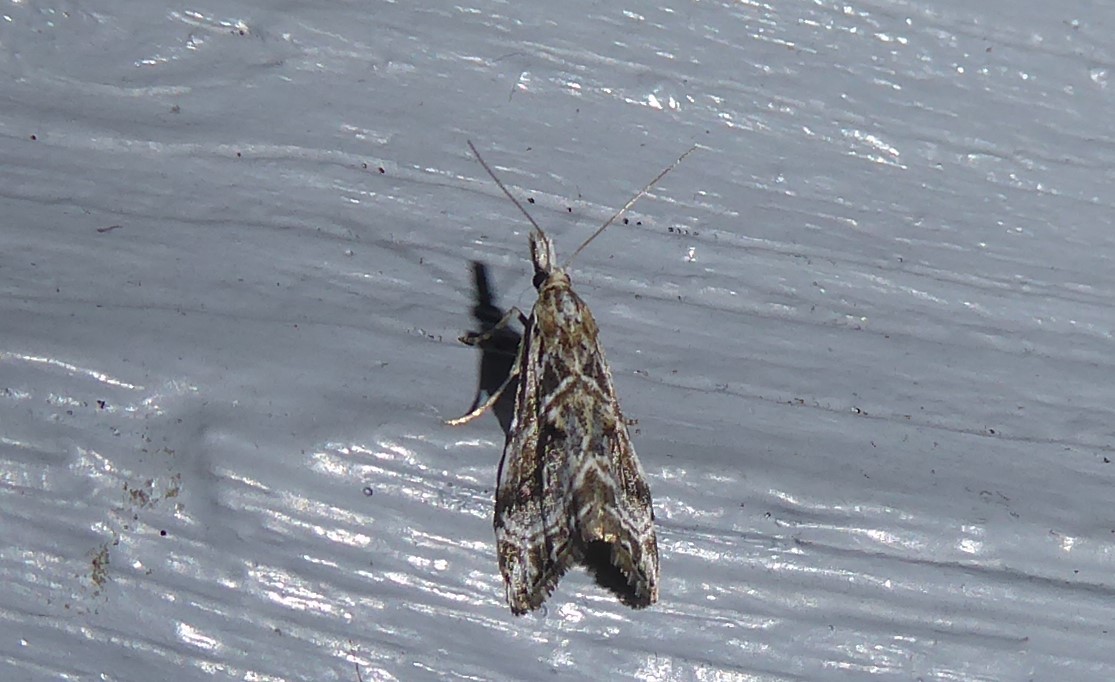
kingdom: Animalia
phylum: Arthropoda
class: Insecta
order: Lepidoptera
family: Crambidae
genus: Gadira
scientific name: Gadira acerella
